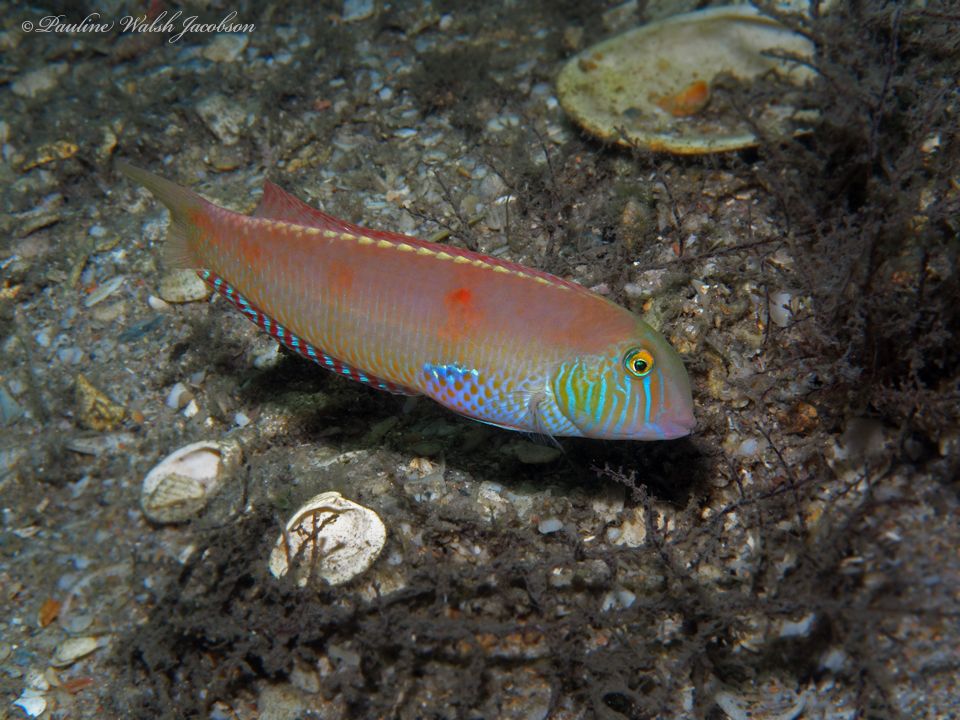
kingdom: Animalia
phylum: Chordata
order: Perciformes
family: Labridae
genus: Xyrichtys
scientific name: Xyrichtys novacula
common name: Pearly razorfish
